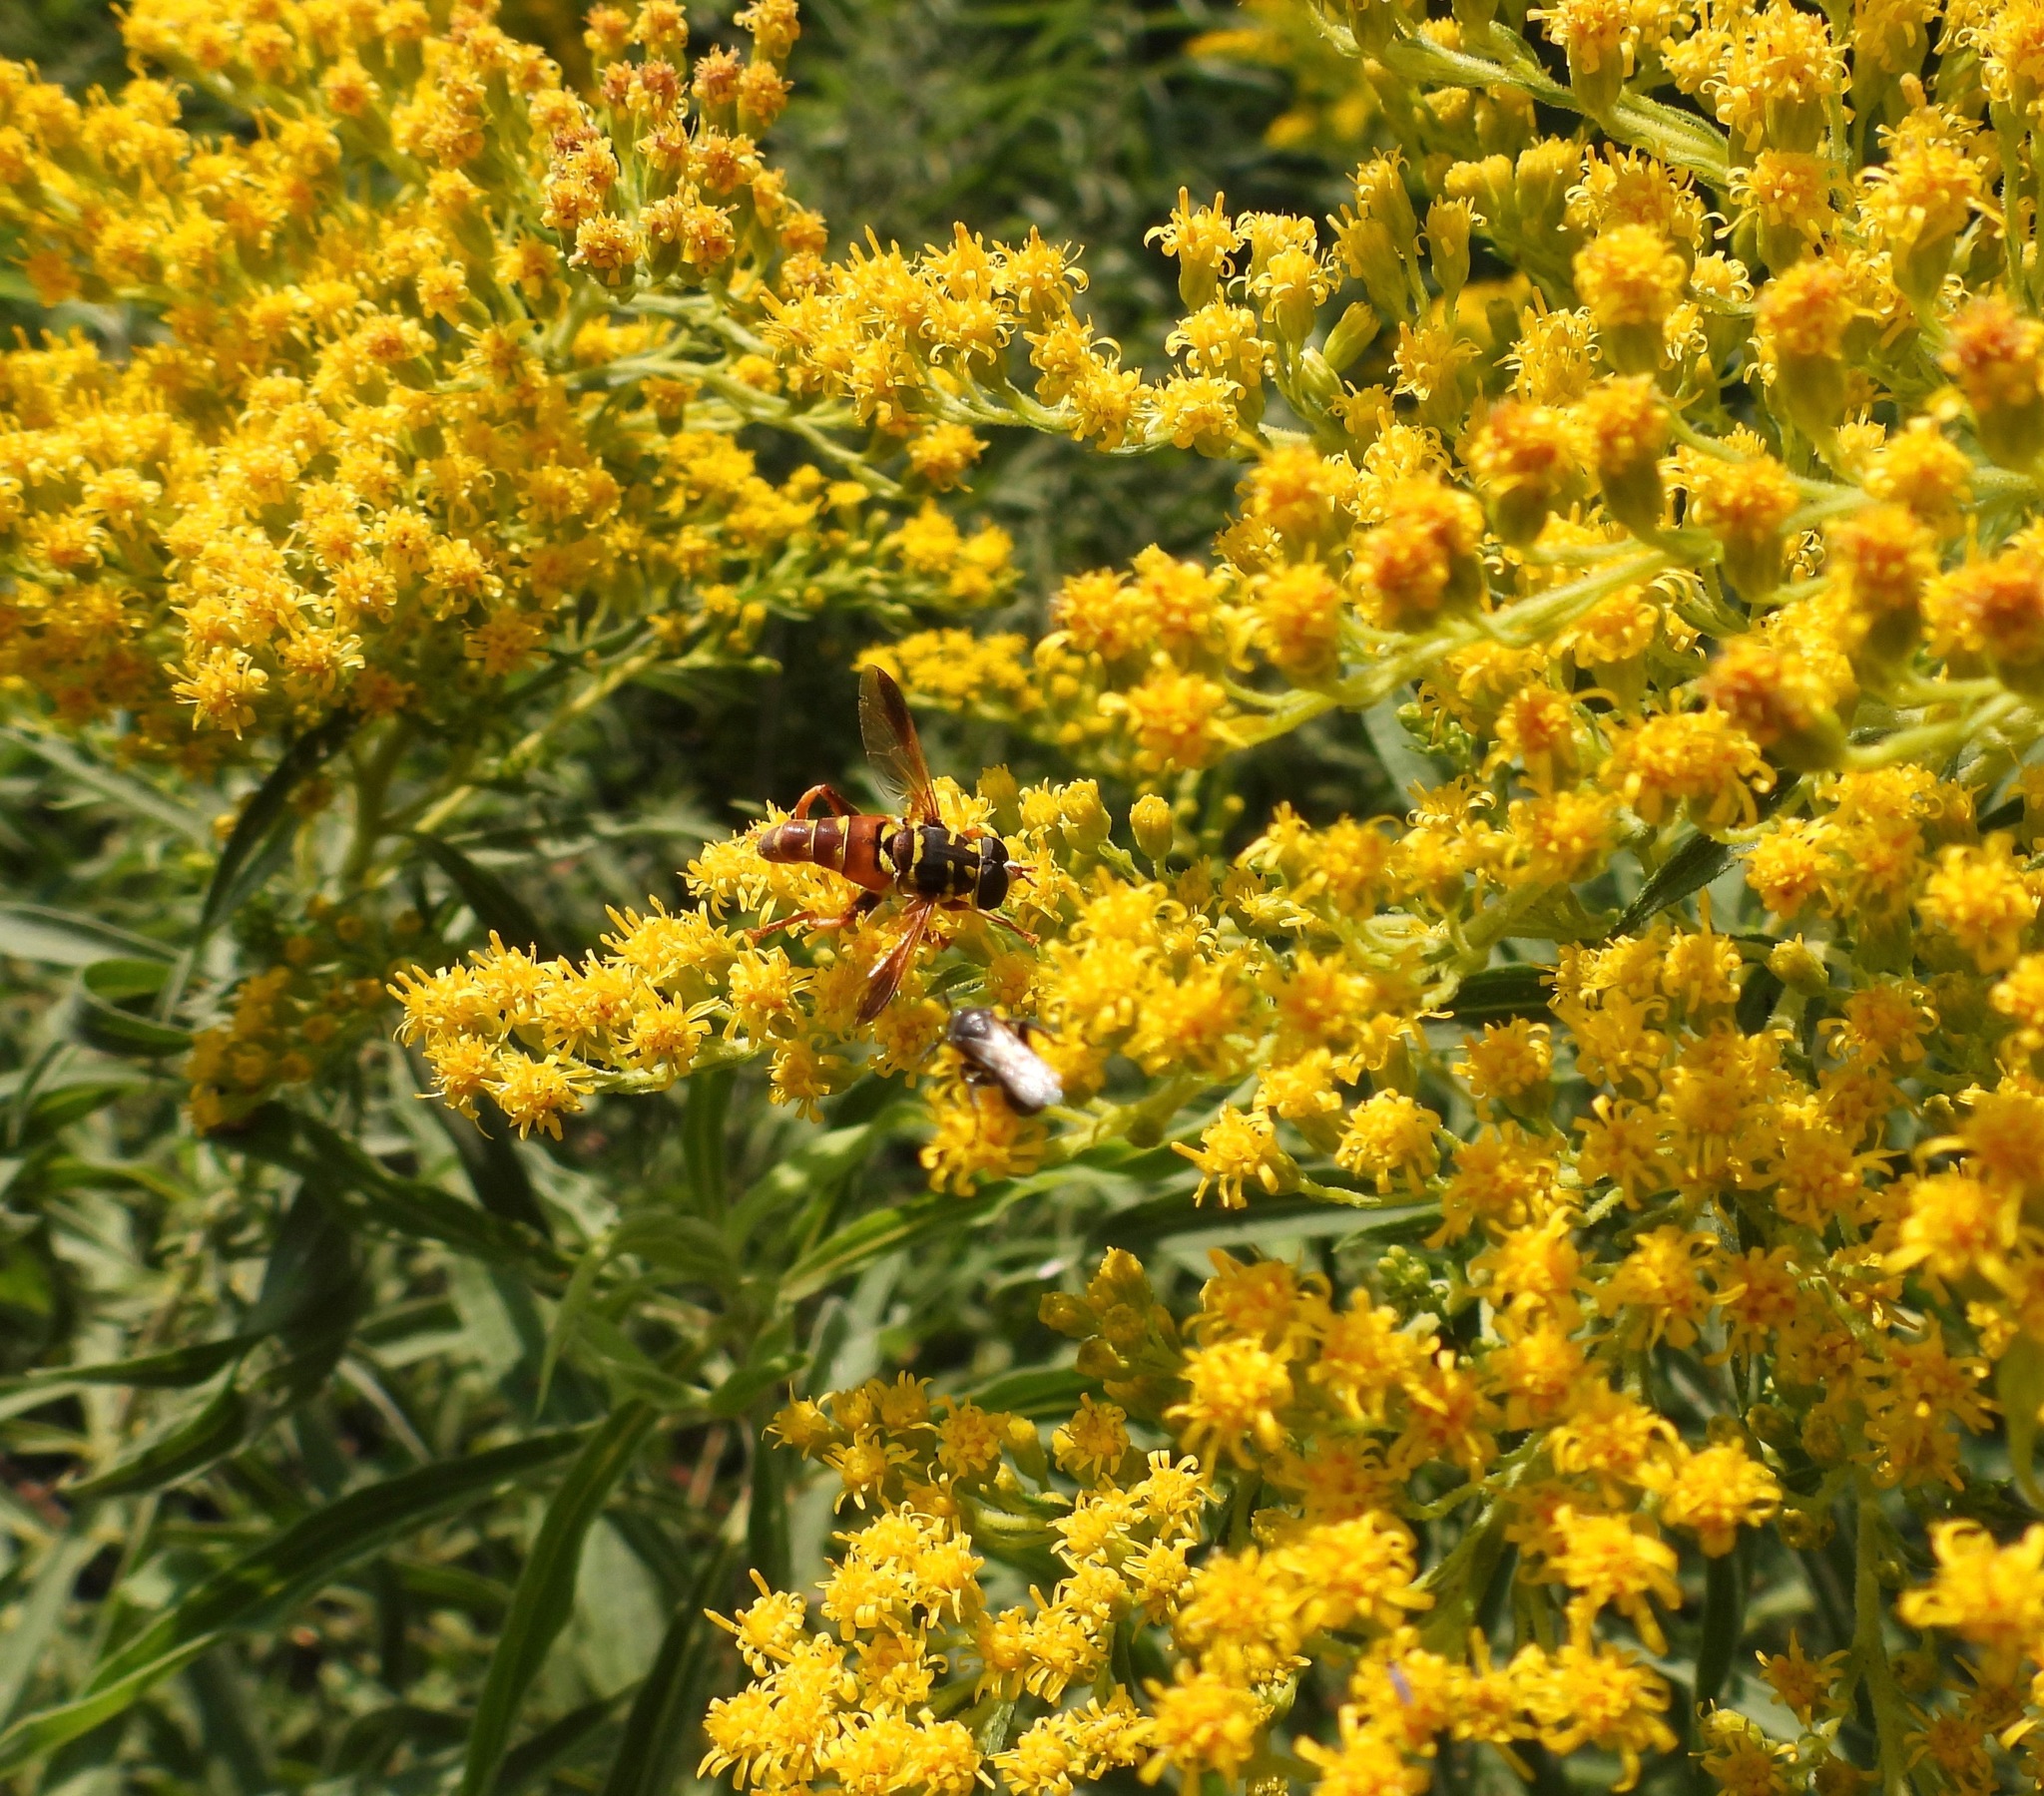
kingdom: Animalia
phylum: Arthropoda
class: Insecta
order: Diptera
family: Syrphidae
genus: Meromacrus
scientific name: Meromacrus gloriosus
